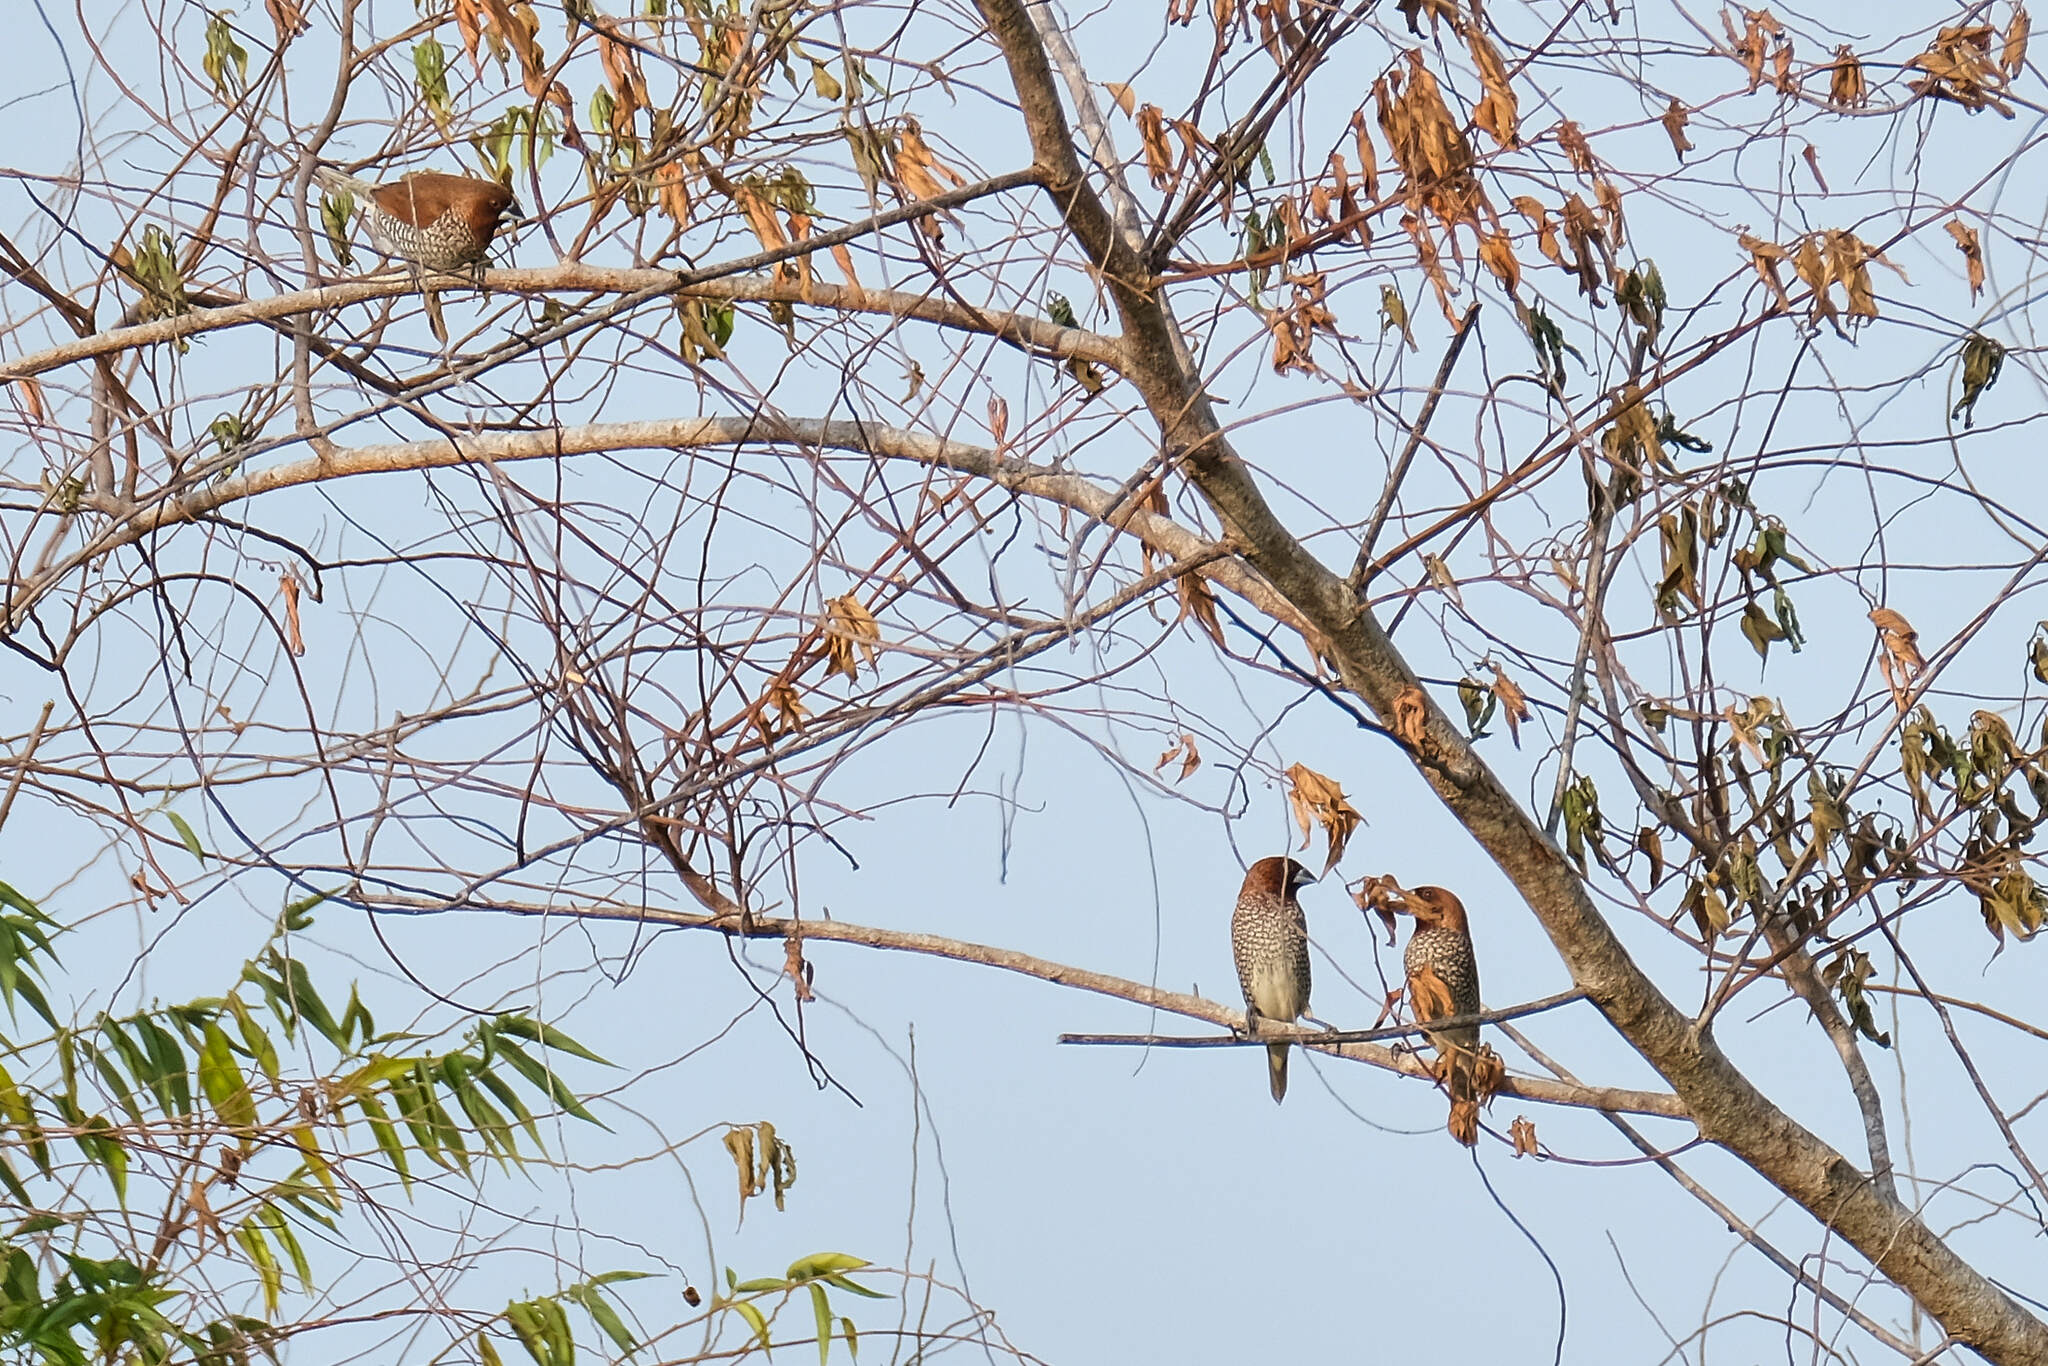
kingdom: Animalia
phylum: Chordata
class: Aves
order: Passeriformes
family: Estrildidae
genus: Lonchura
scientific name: Lonchura punctulata
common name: Scaly-breasted munia
